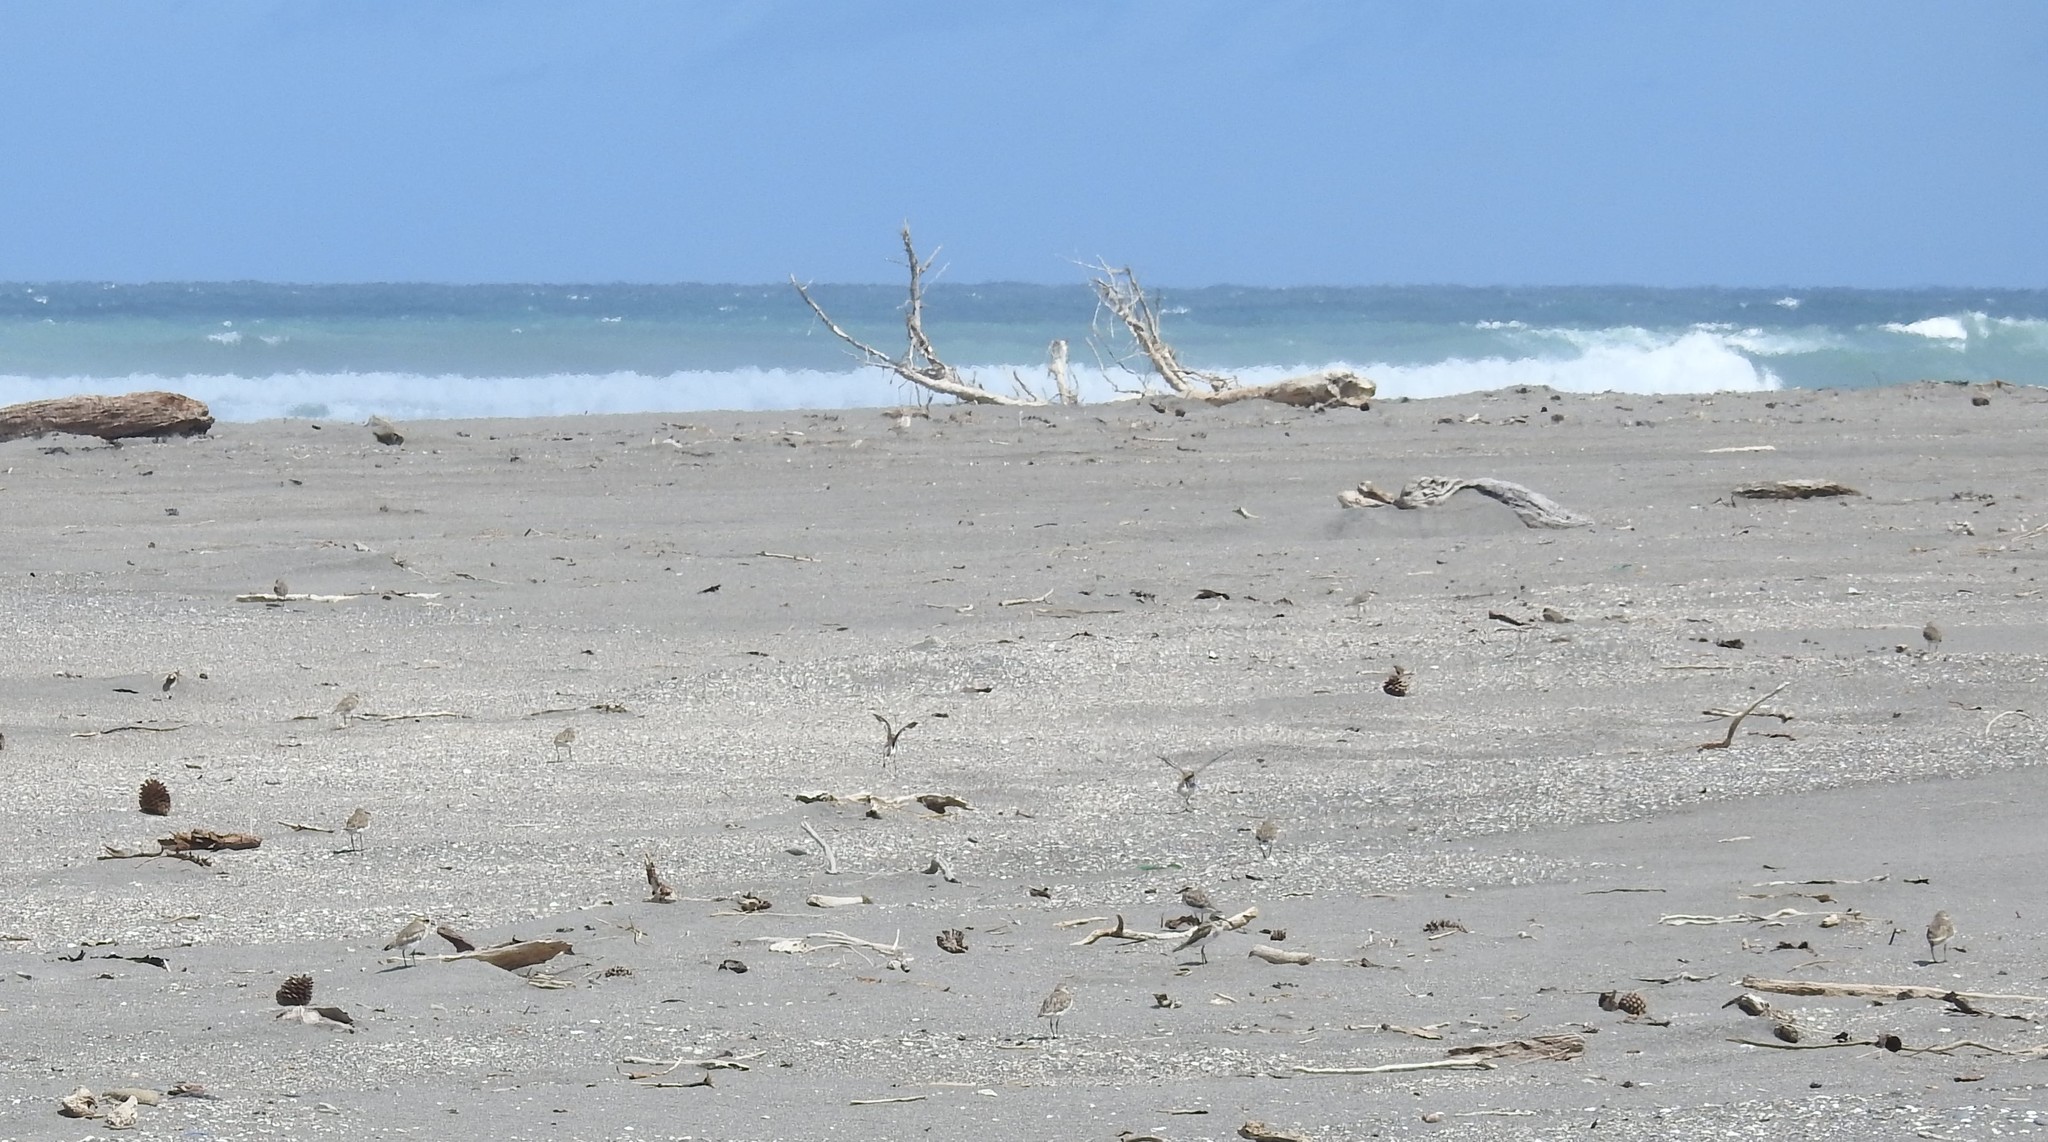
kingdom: Animalia
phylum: Chordata
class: Aves
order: Charadriiformes
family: Charadriidae
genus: Anarhynchus
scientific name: Anarhynchus
